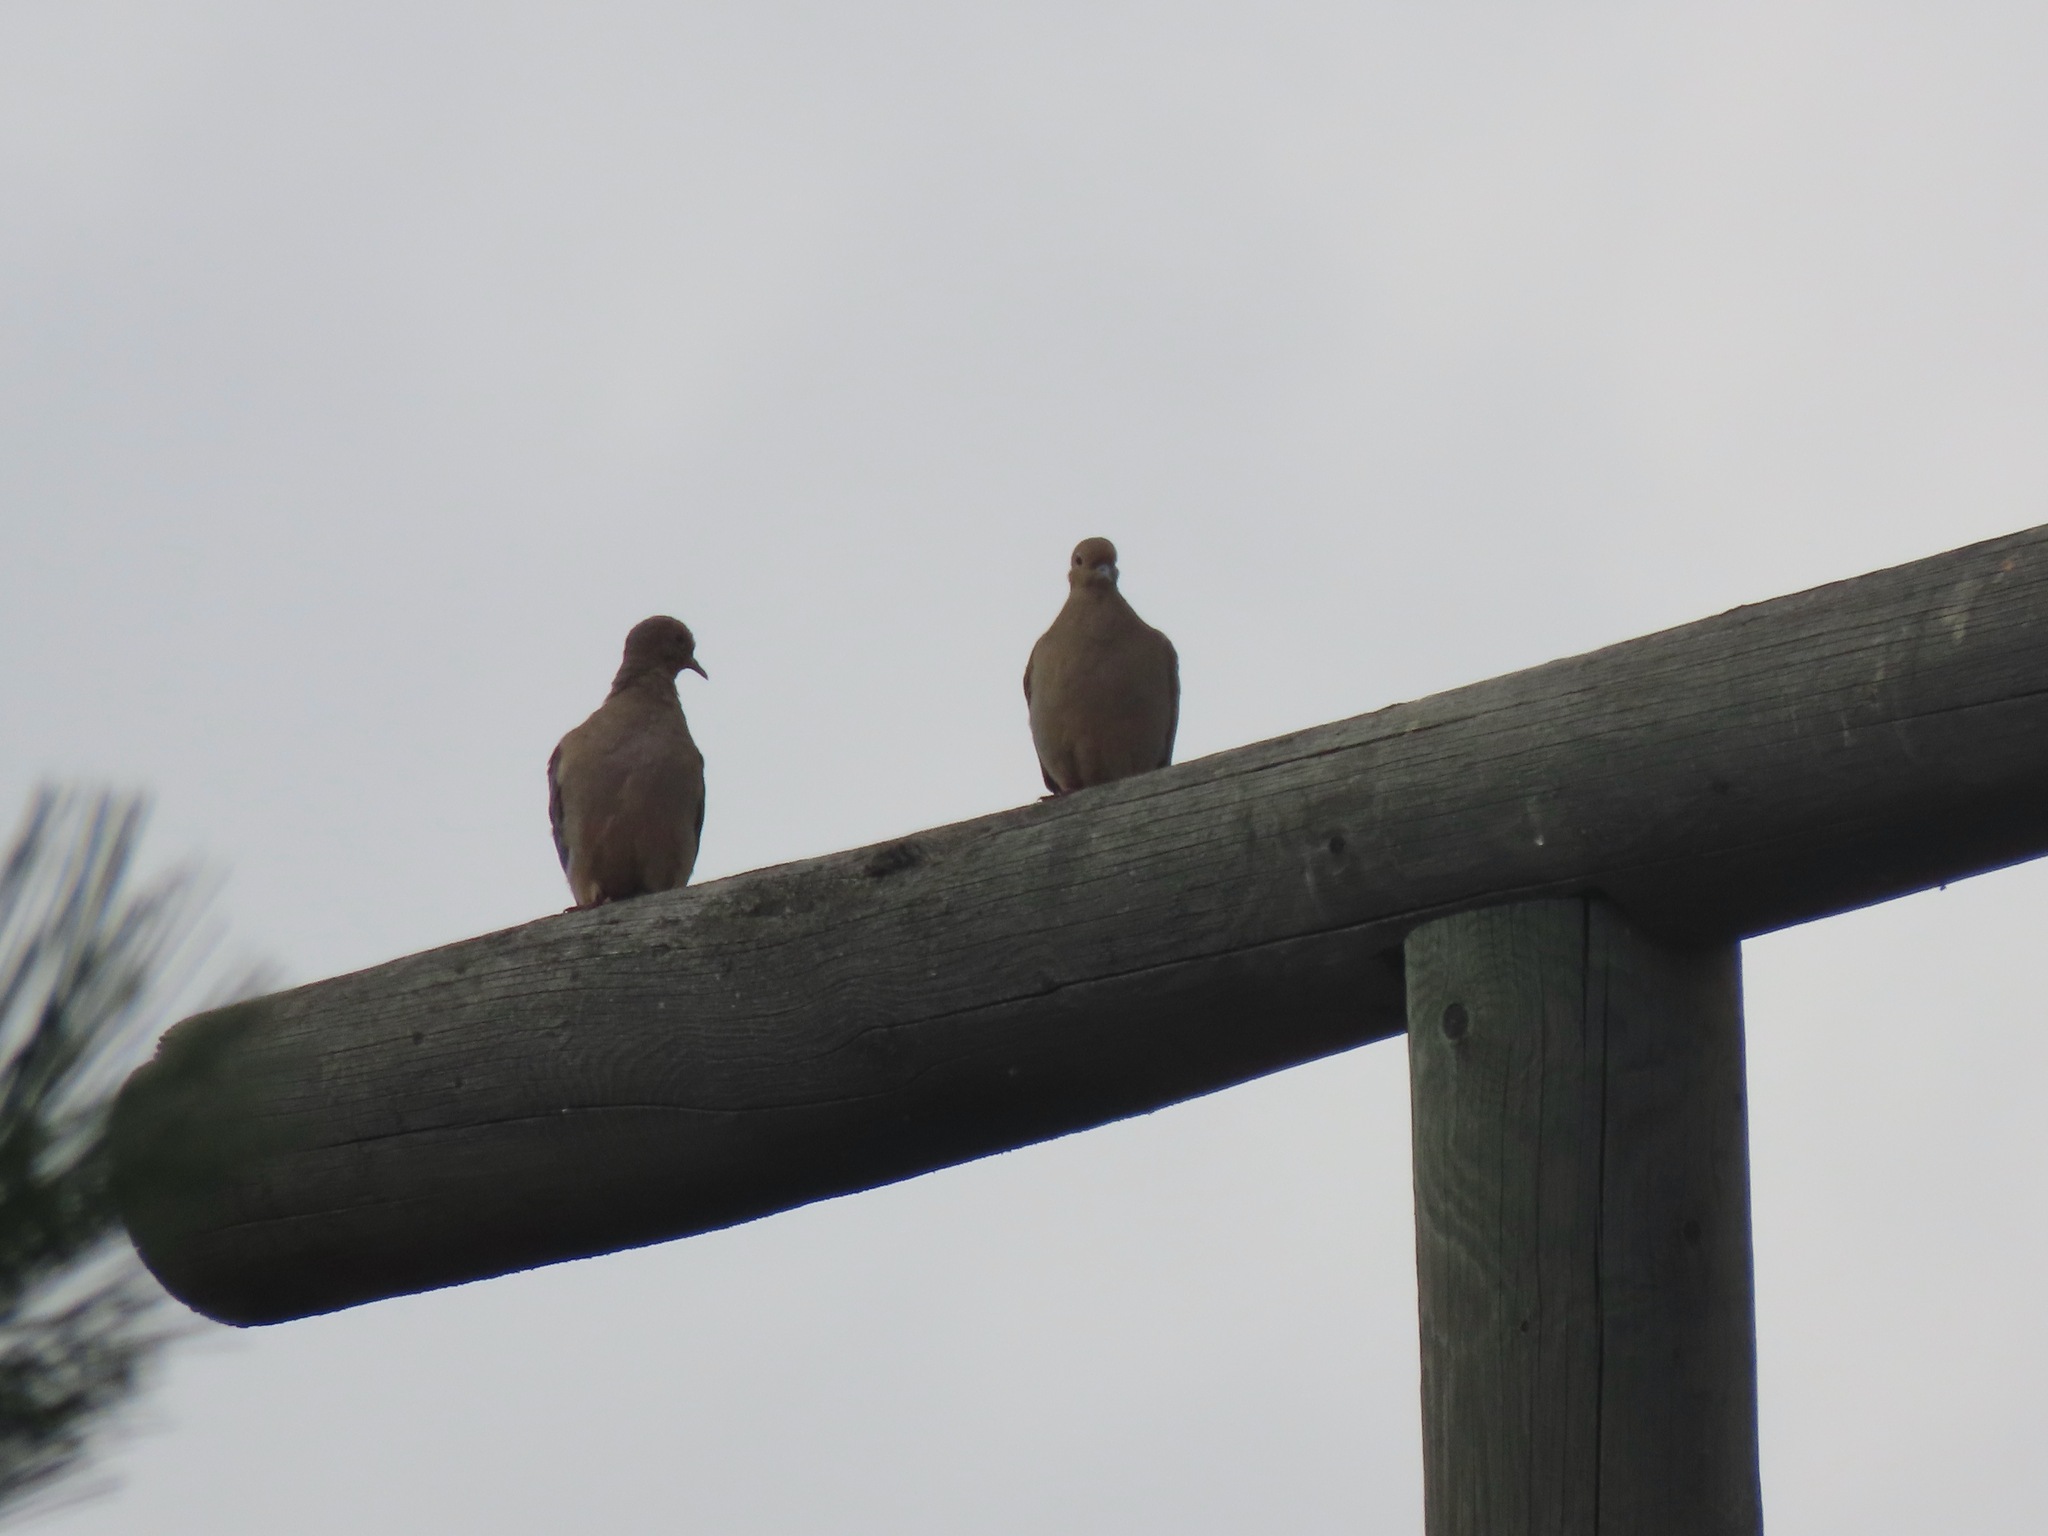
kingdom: Animalia
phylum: Chordata
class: Aves
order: Columbiformes
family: Columbidae
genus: Zenaida
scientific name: Zenaida macroura
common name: Mourning dove
